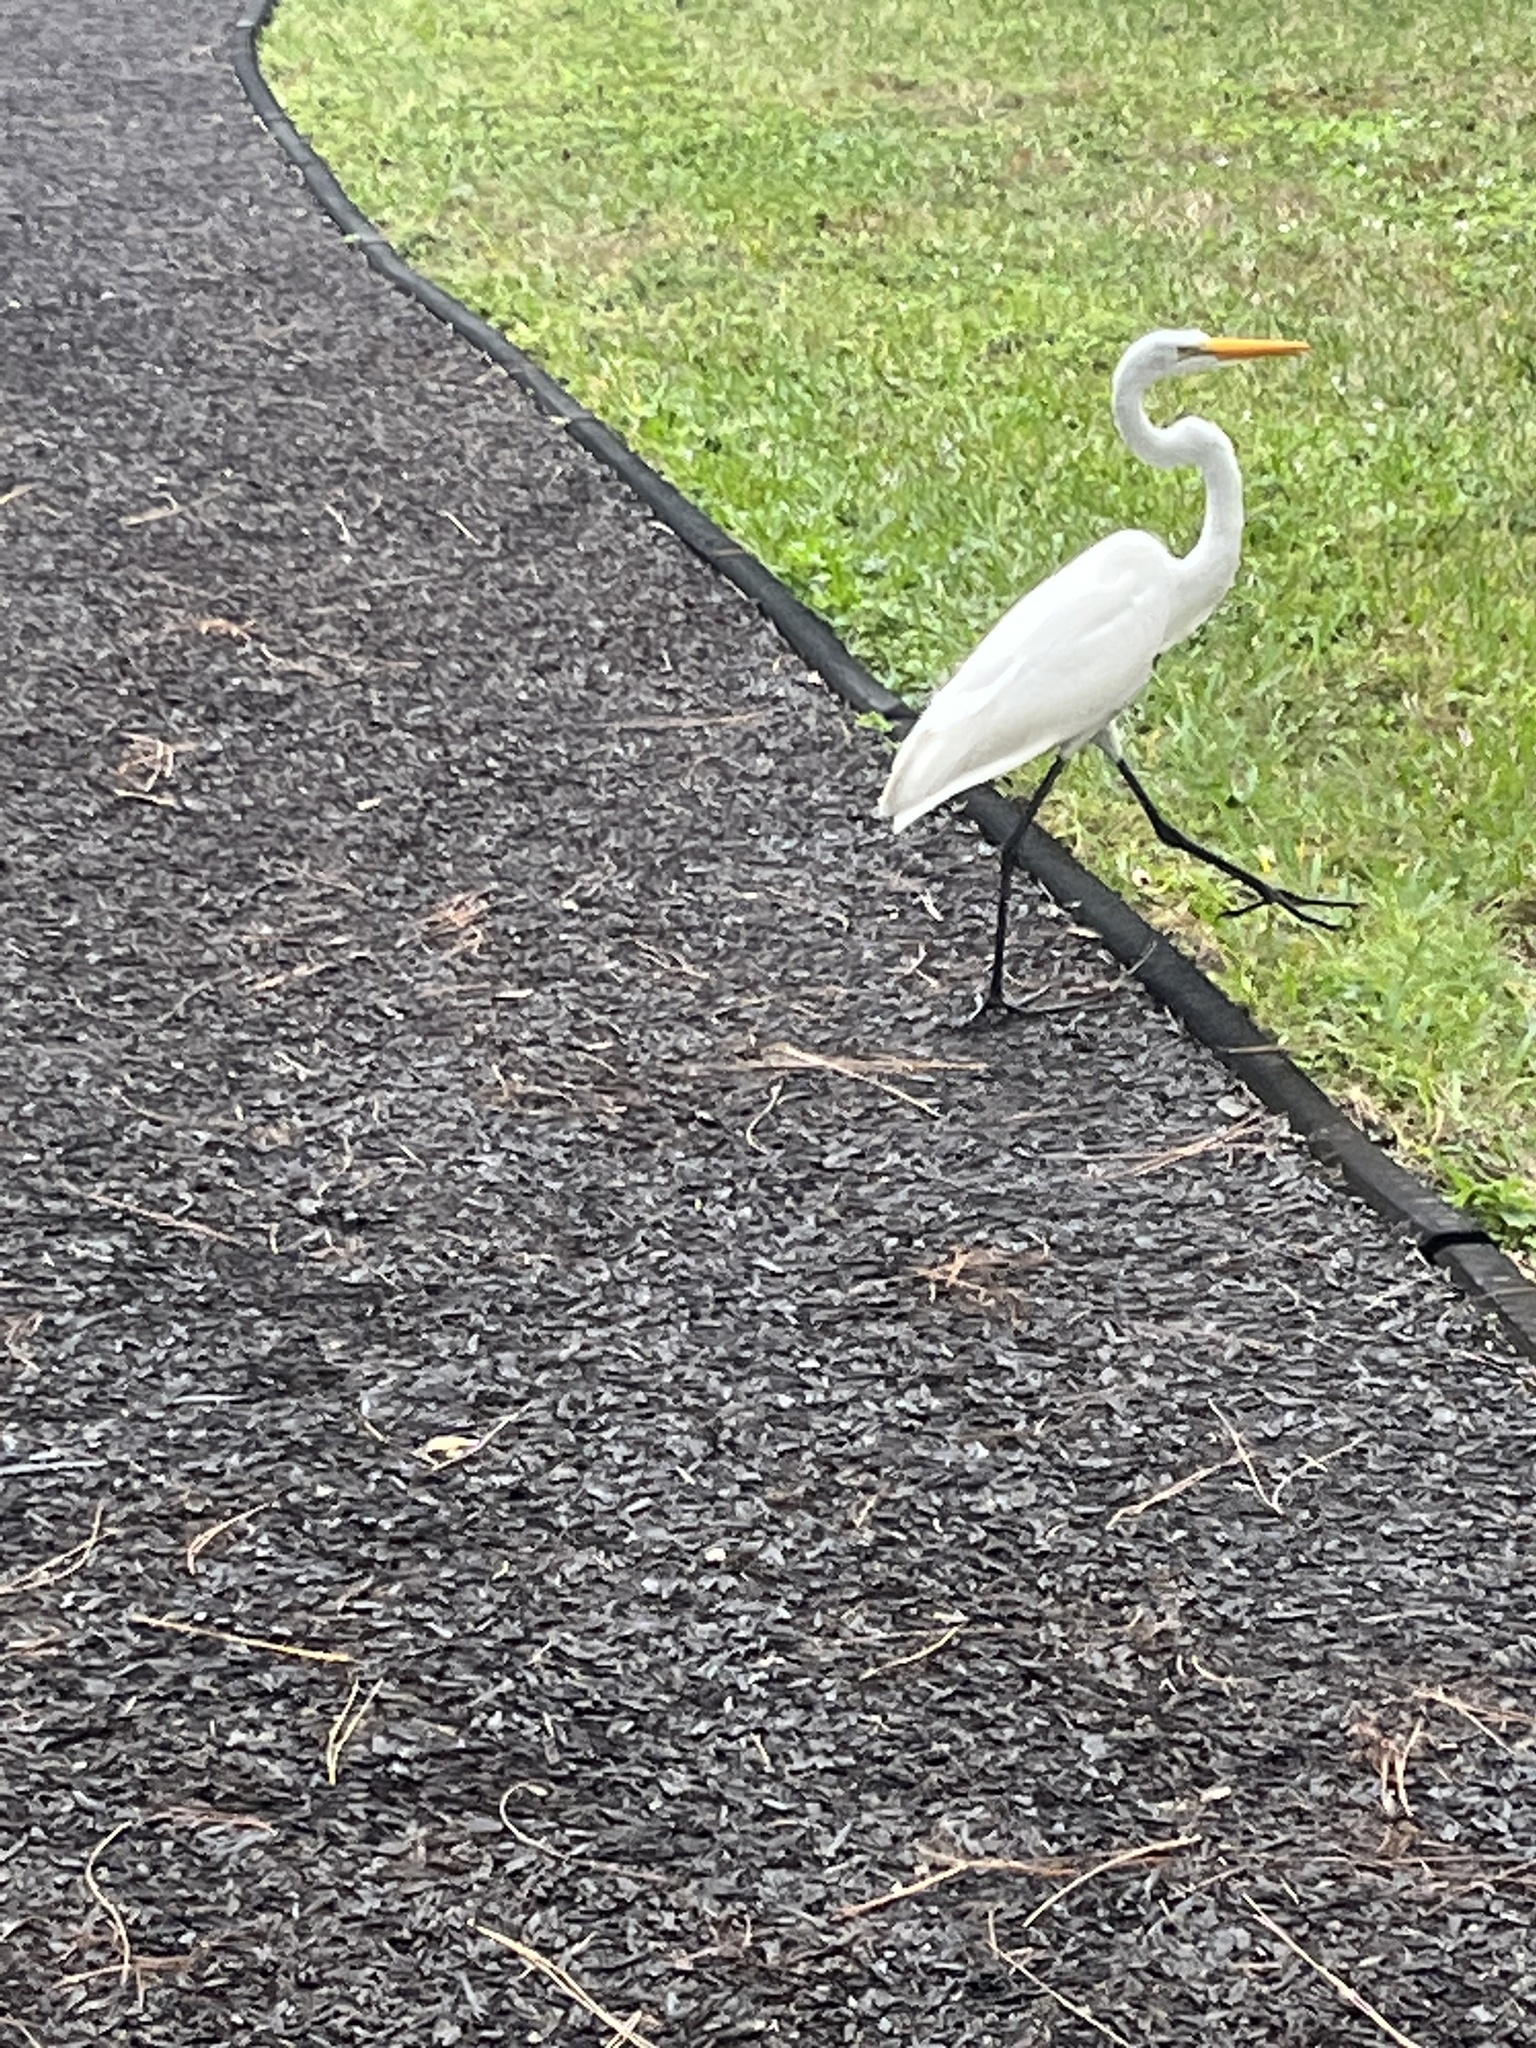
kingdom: Animalia
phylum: Chordata
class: Aves
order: Pelecaniformes
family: Ardeidae
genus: Ardea
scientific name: Ardea alba
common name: Great egret
